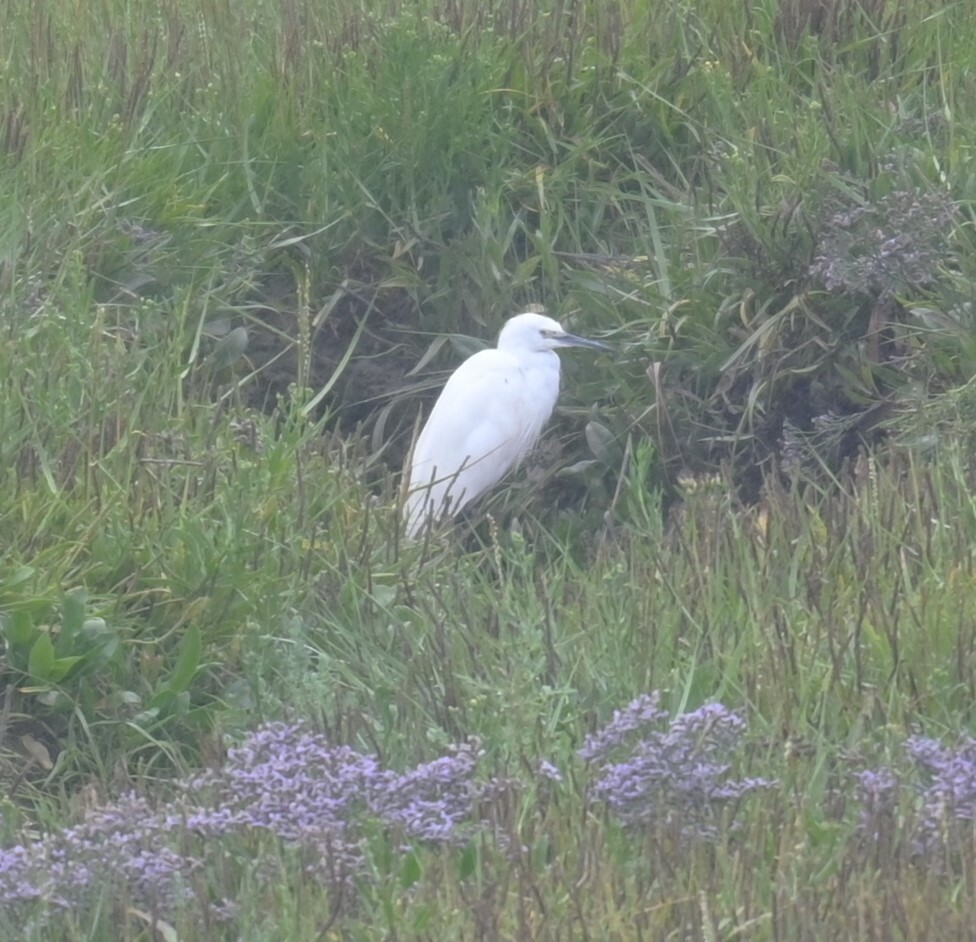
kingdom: Animalia
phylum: Chordata
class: Aves
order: Pelecaniformes
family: Ardeidae
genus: Egretta
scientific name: Egretta garzetta
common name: Little egret
